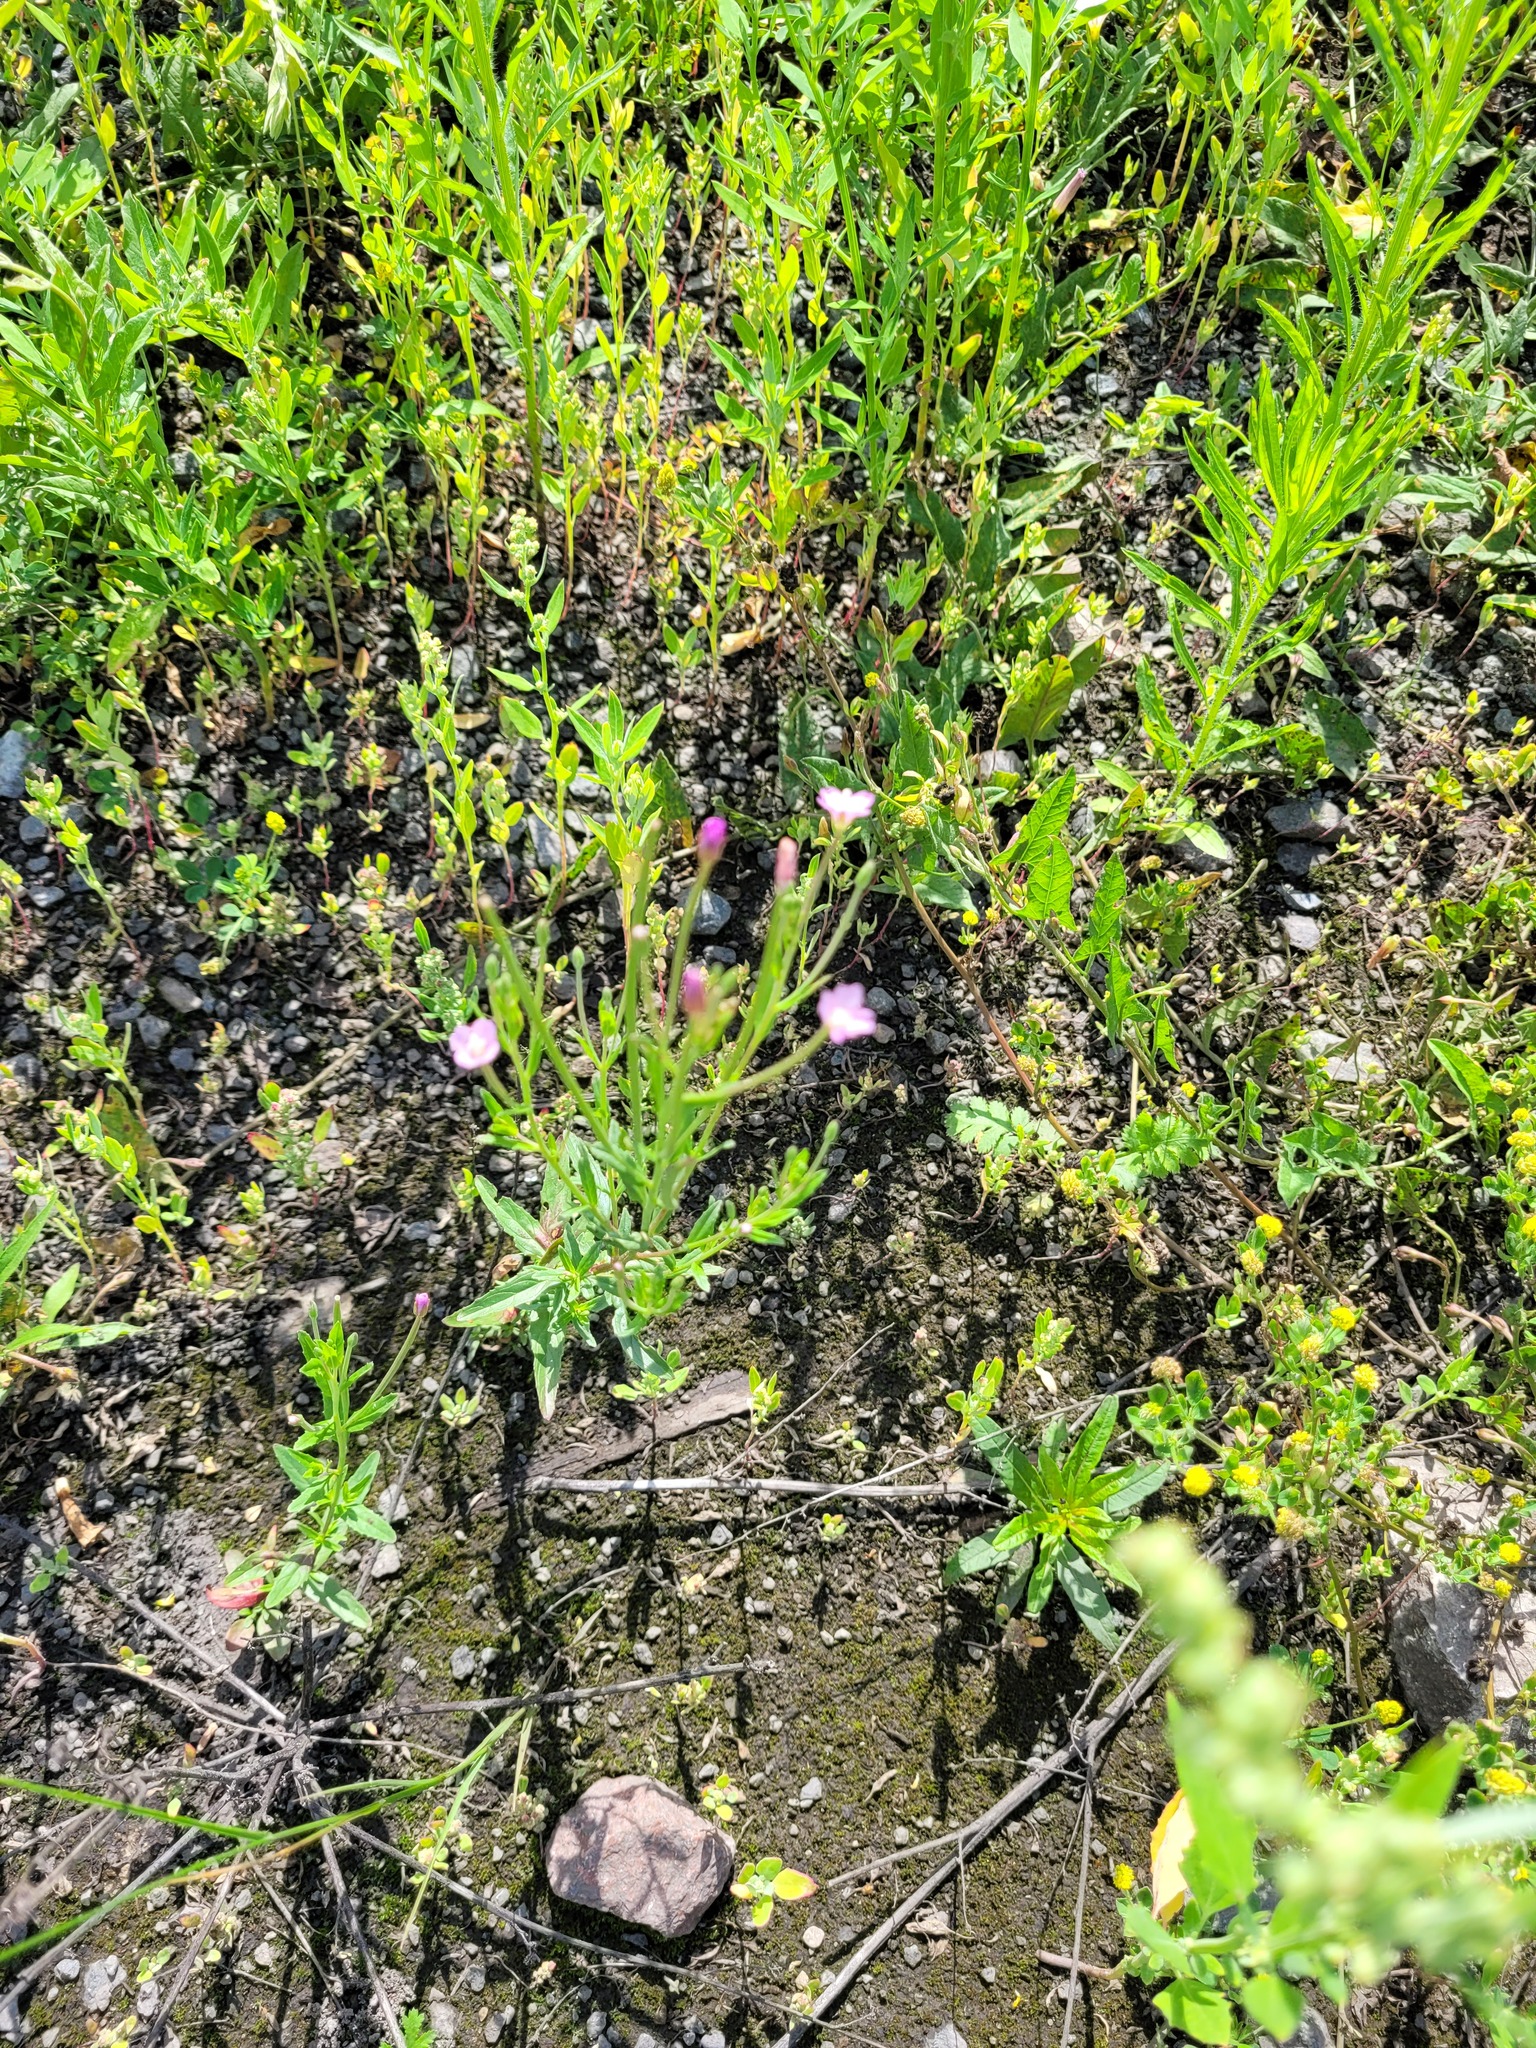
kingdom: Plantae
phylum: Tracheophyta
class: Magnoliopsida
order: Myrtales
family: Onagraceae
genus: Epilobium
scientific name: Epilobium lamyi
